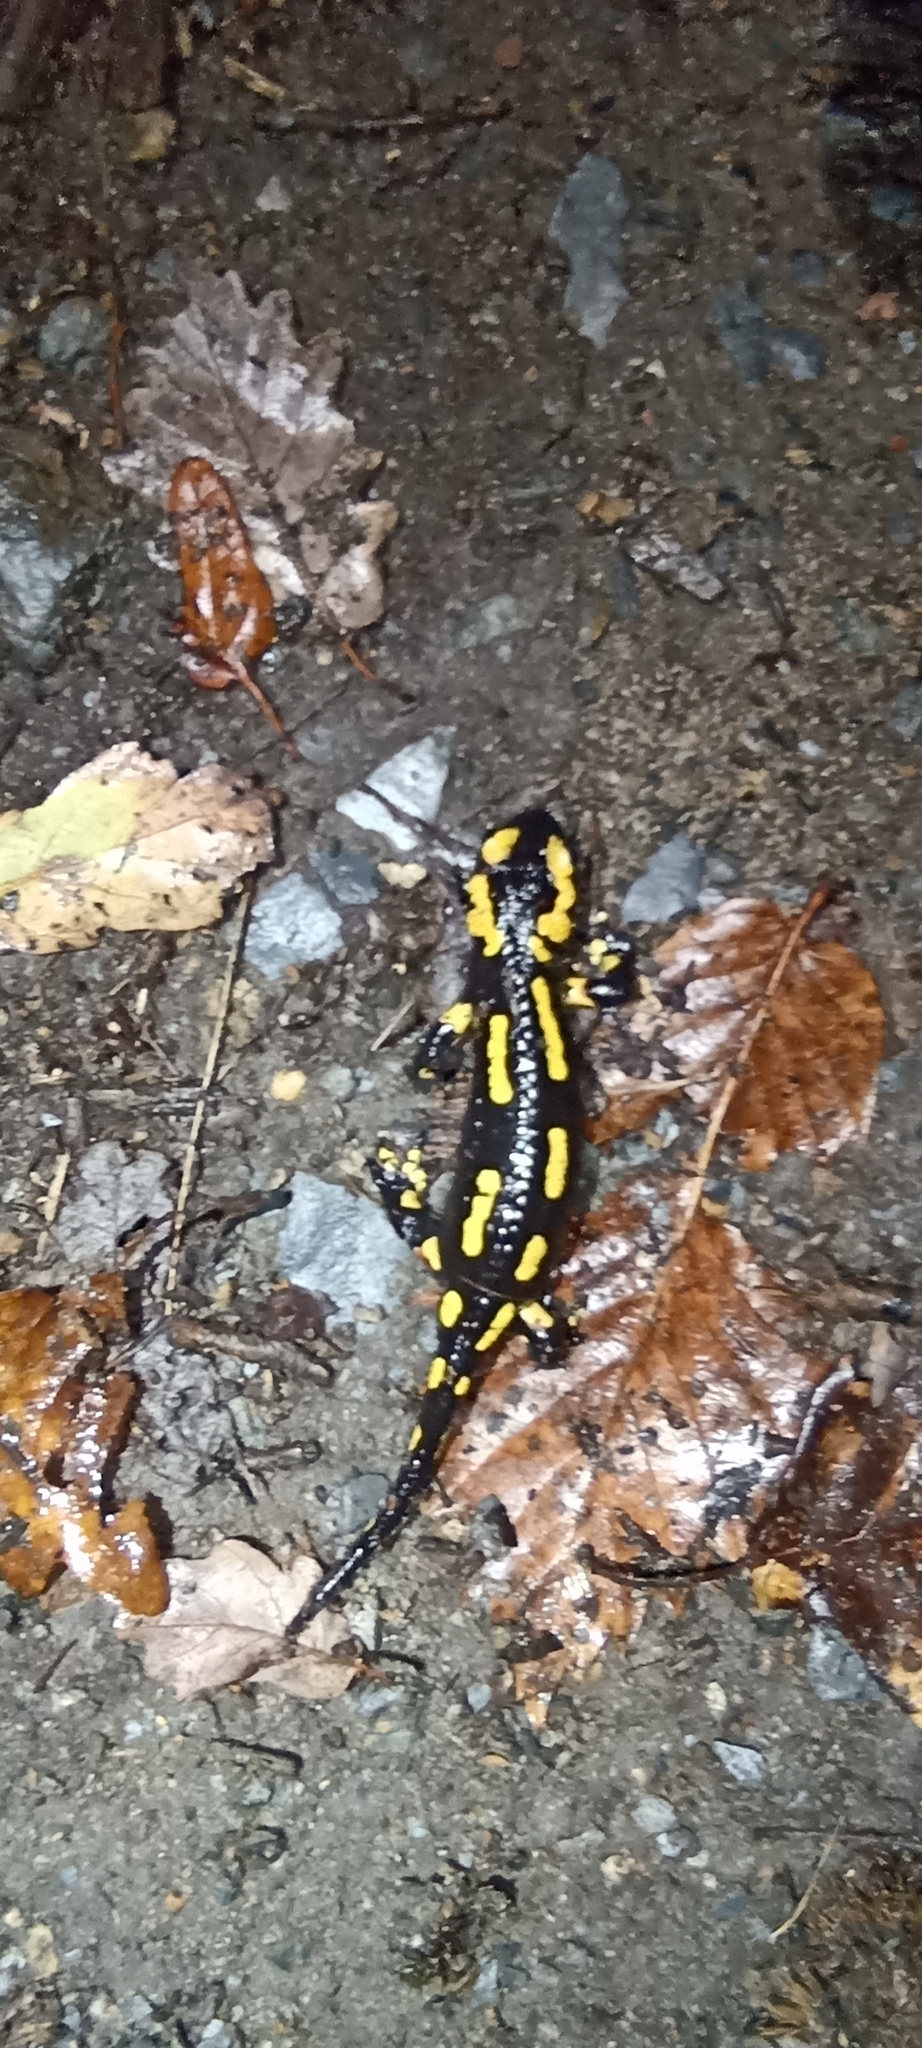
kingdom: Animalia
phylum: Chordata
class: Amphibia
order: Caudata
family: Salamandridae
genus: Salamandra
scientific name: Salamandra salamandra
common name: Fire salamander
